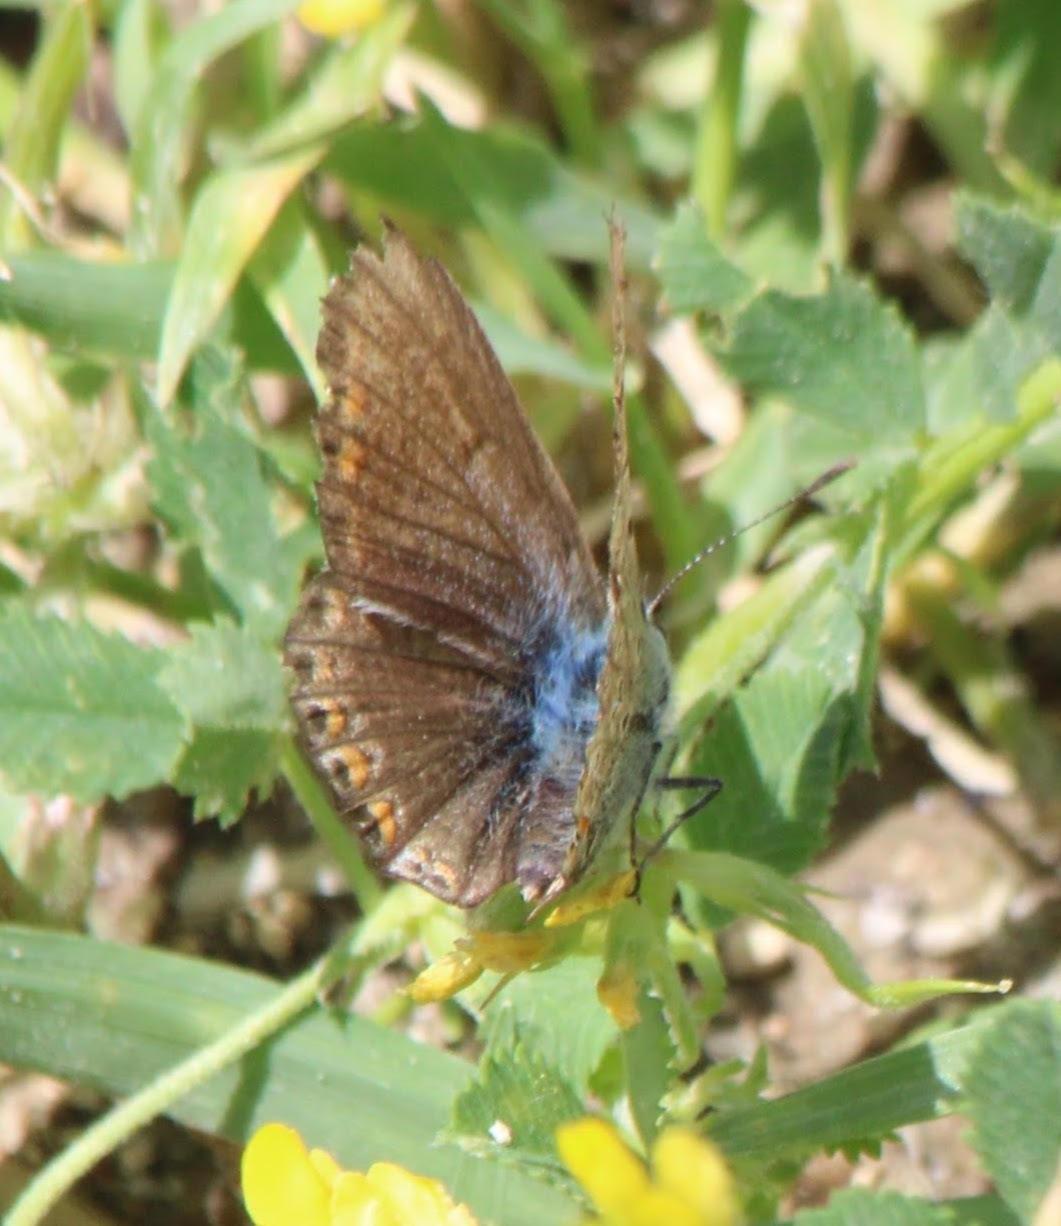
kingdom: Animalia
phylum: Arthropoda
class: Insecta
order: Lepidoptera
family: Lycaenidae
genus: Polyommatus
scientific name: Polyommatus icarus
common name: Common blue
